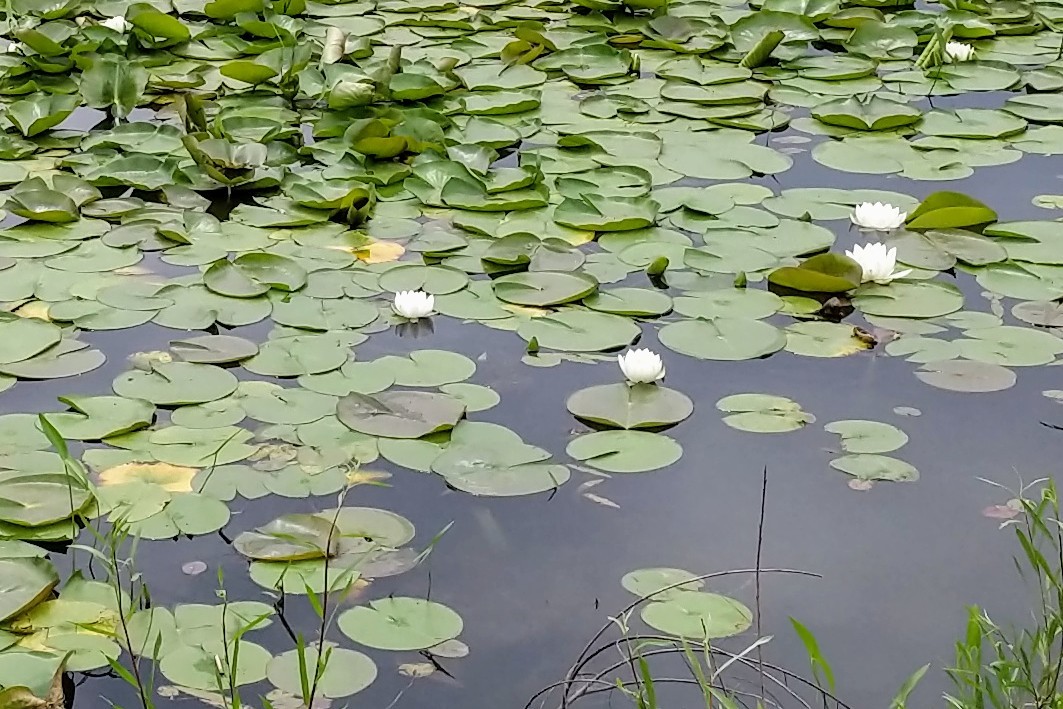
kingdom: Plantae
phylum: Tracheophyta
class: Magnoliopsida
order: Nymphaeales
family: Nymphaeaceae
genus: Nymphaea
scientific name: Nymphaea odorata
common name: Fragrant water-lily
